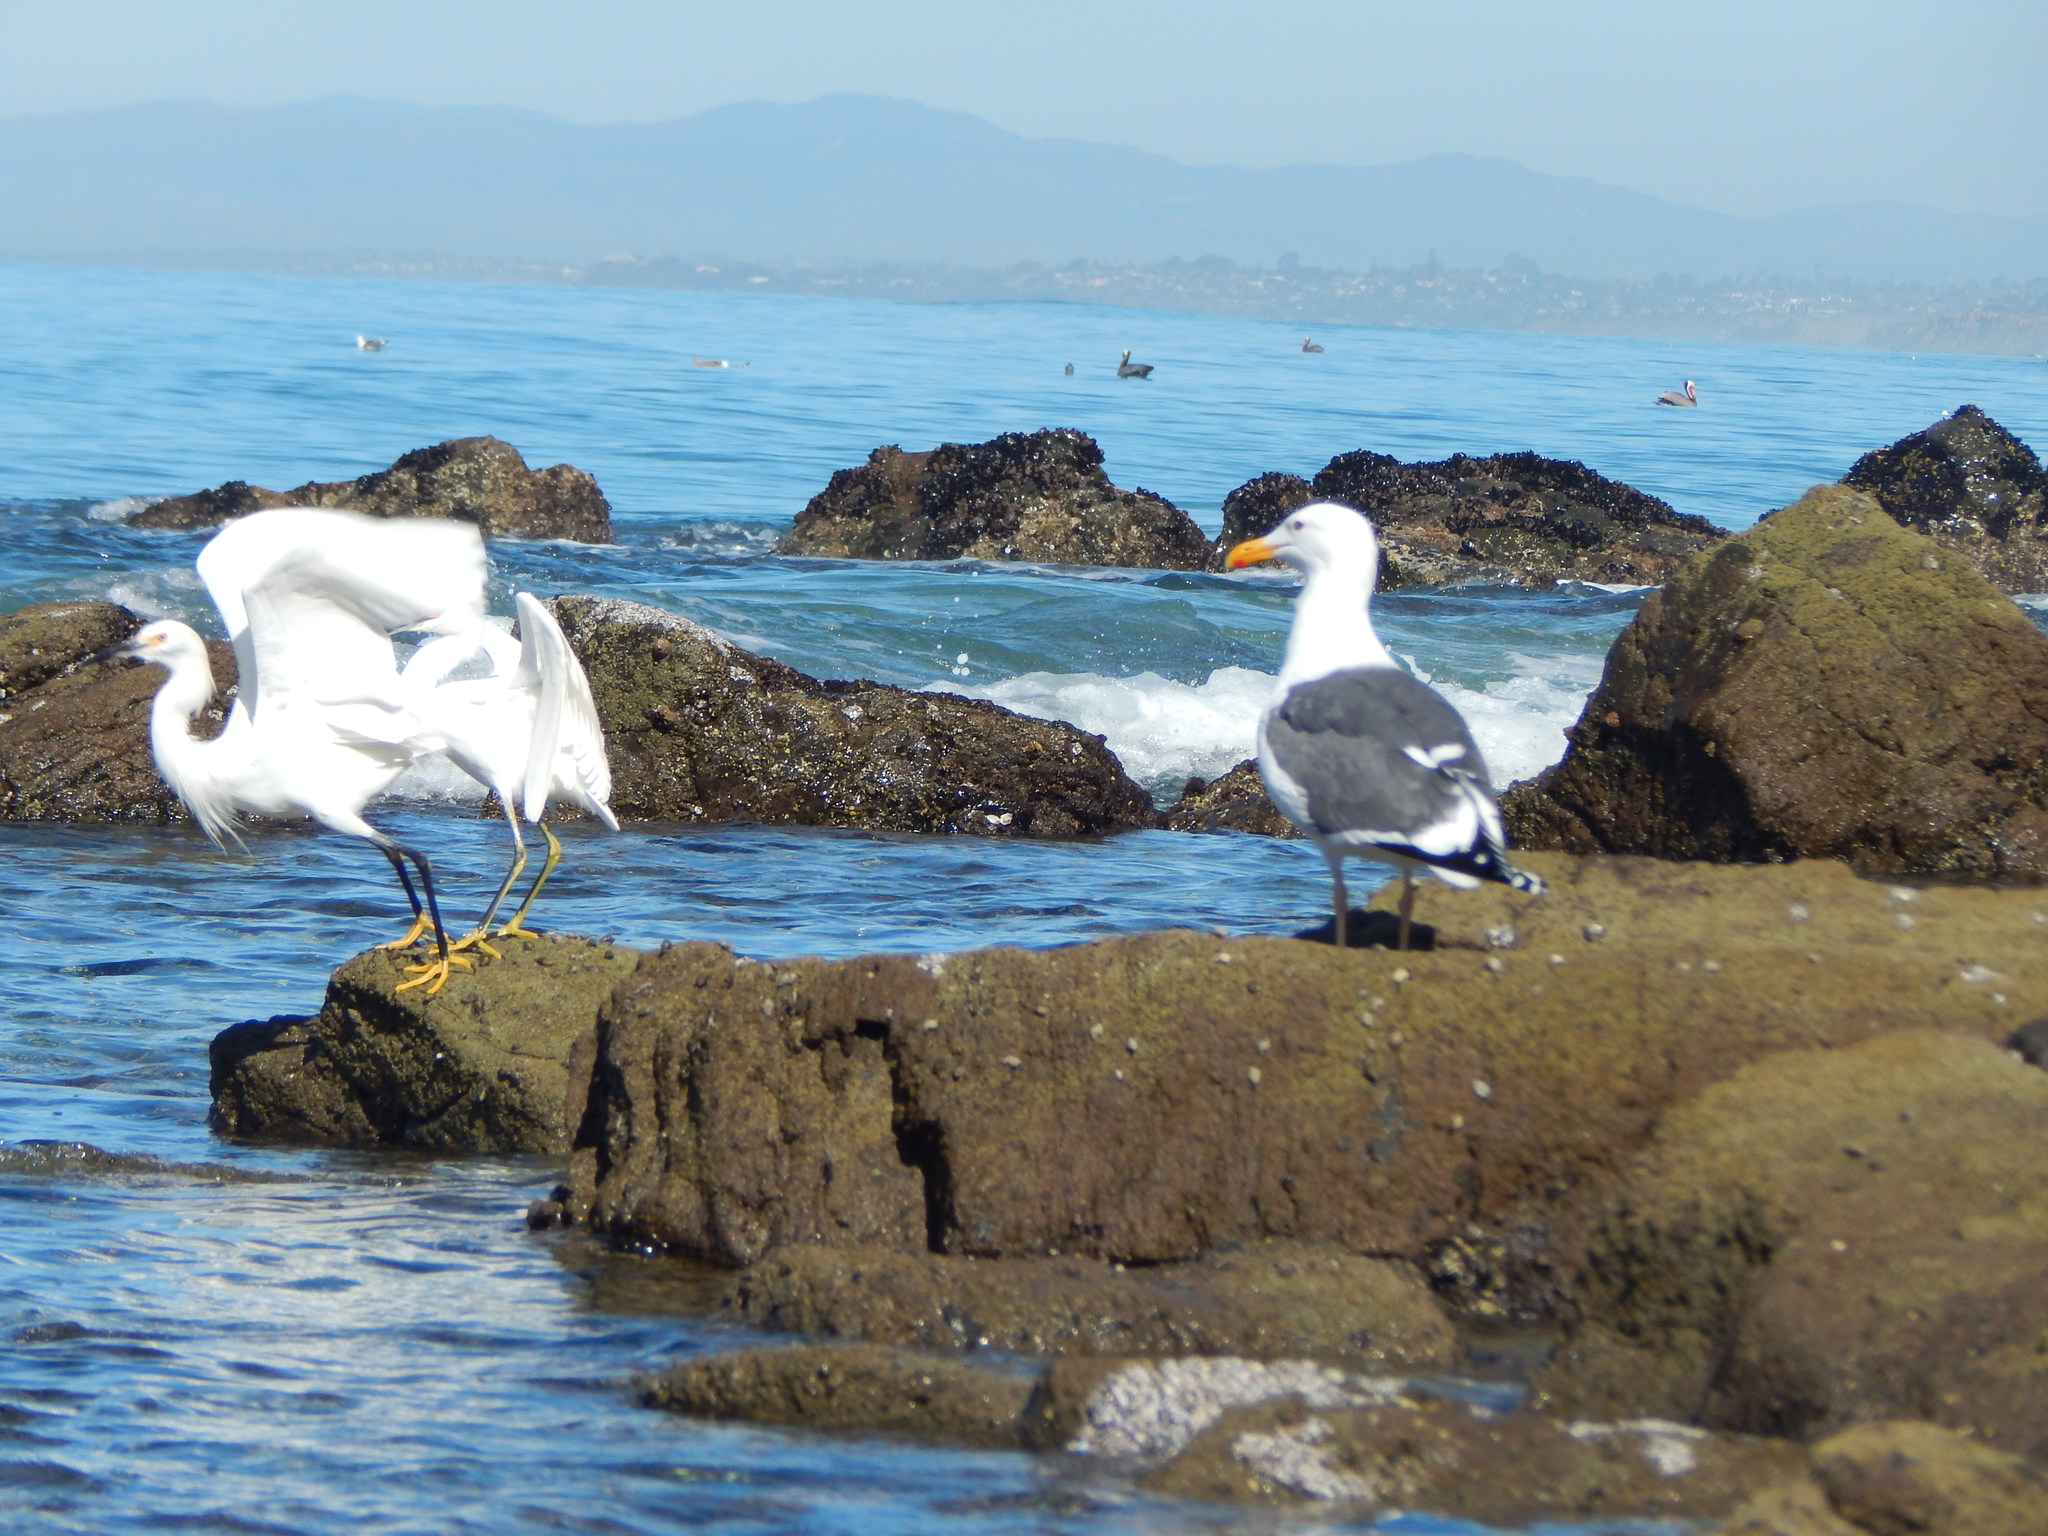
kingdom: Animalia
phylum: Chordata
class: Aves
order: Pelecaniformes
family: Ardeidae
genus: Egretta
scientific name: Egretta thula
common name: Snowy egret
